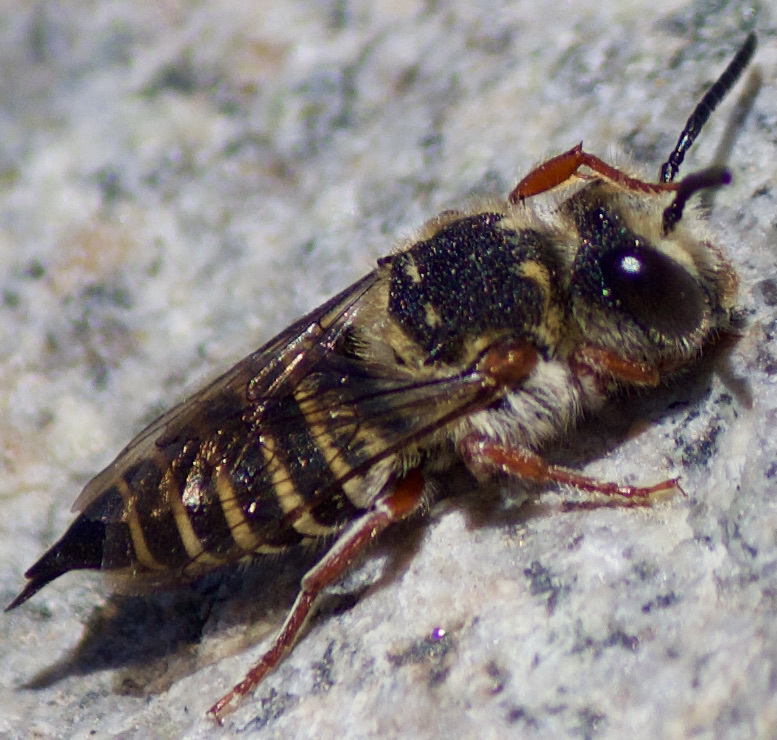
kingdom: Animalia
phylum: Arthropoda
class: Insecta
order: Hymenoptera
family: Megachilidae
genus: Coelioxys
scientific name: Coelioxys pergandei
